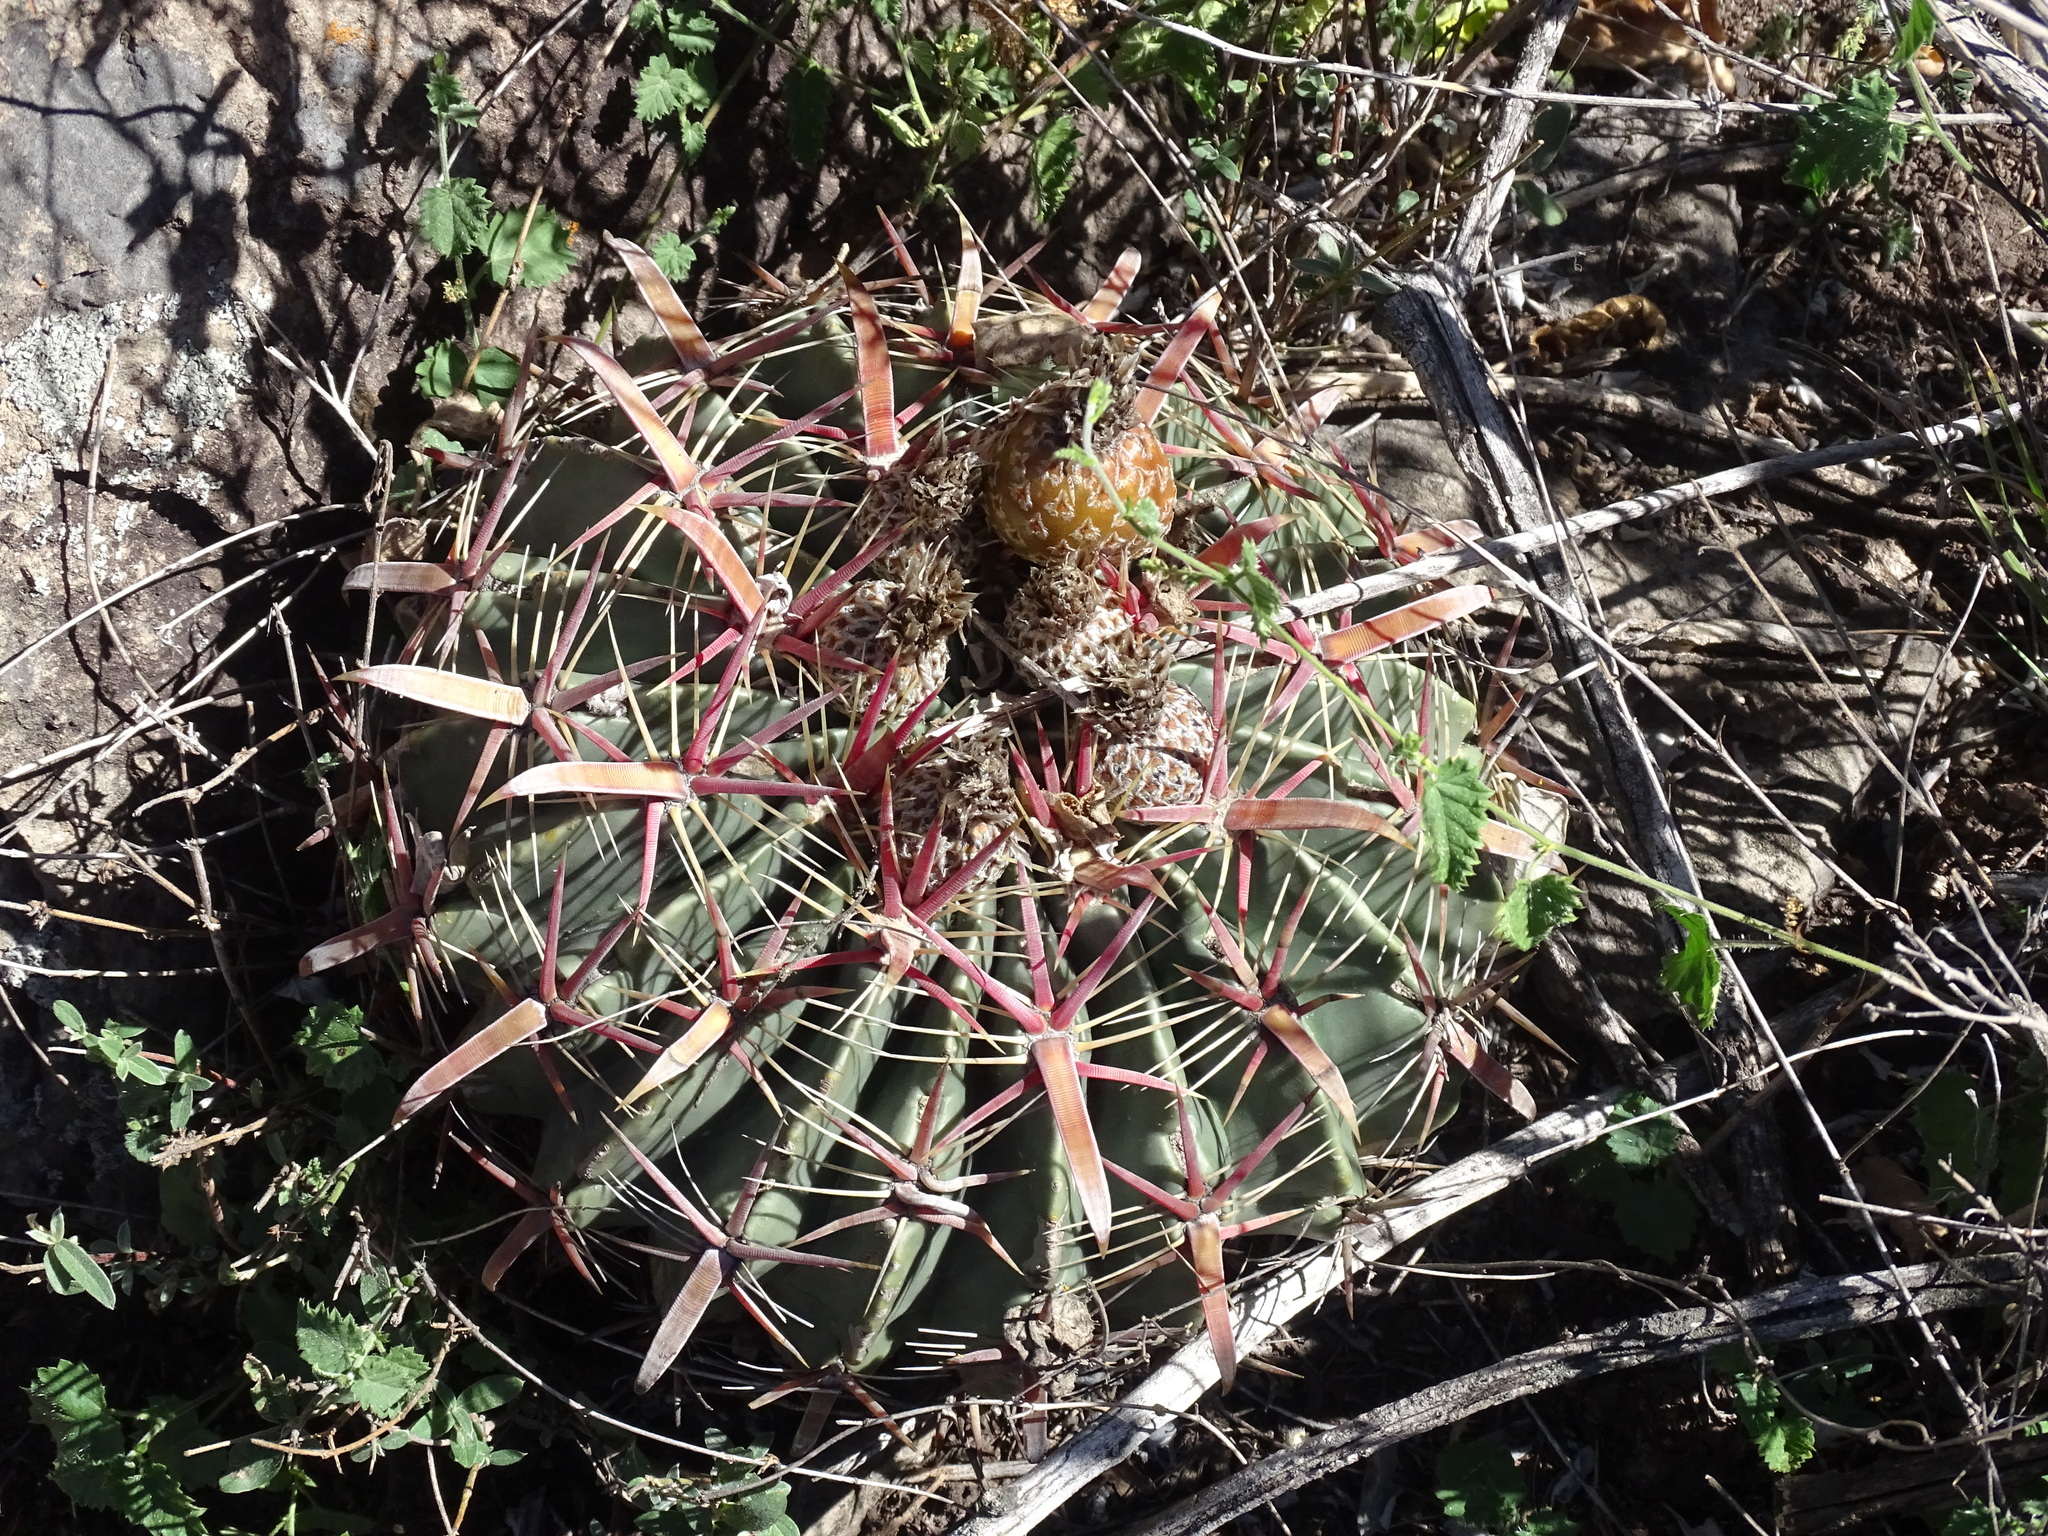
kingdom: Plantae
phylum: Tracheophyta
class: Magnoliopsida
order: Caryophyllales
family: Cactaceae
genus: Ferocactus
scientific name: Ferocactus latispinus
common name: Devil's-tongue cactus
